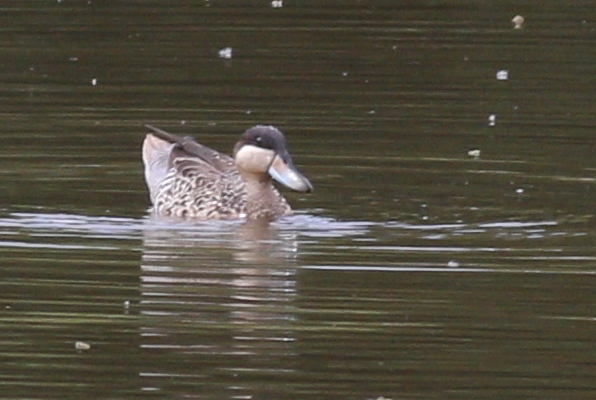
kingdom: Animalia
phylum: Chordata
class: Aves
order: Anseriformes
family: Anatidae
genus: Spatula
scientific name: Spatula versicolor
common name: Silver teal
